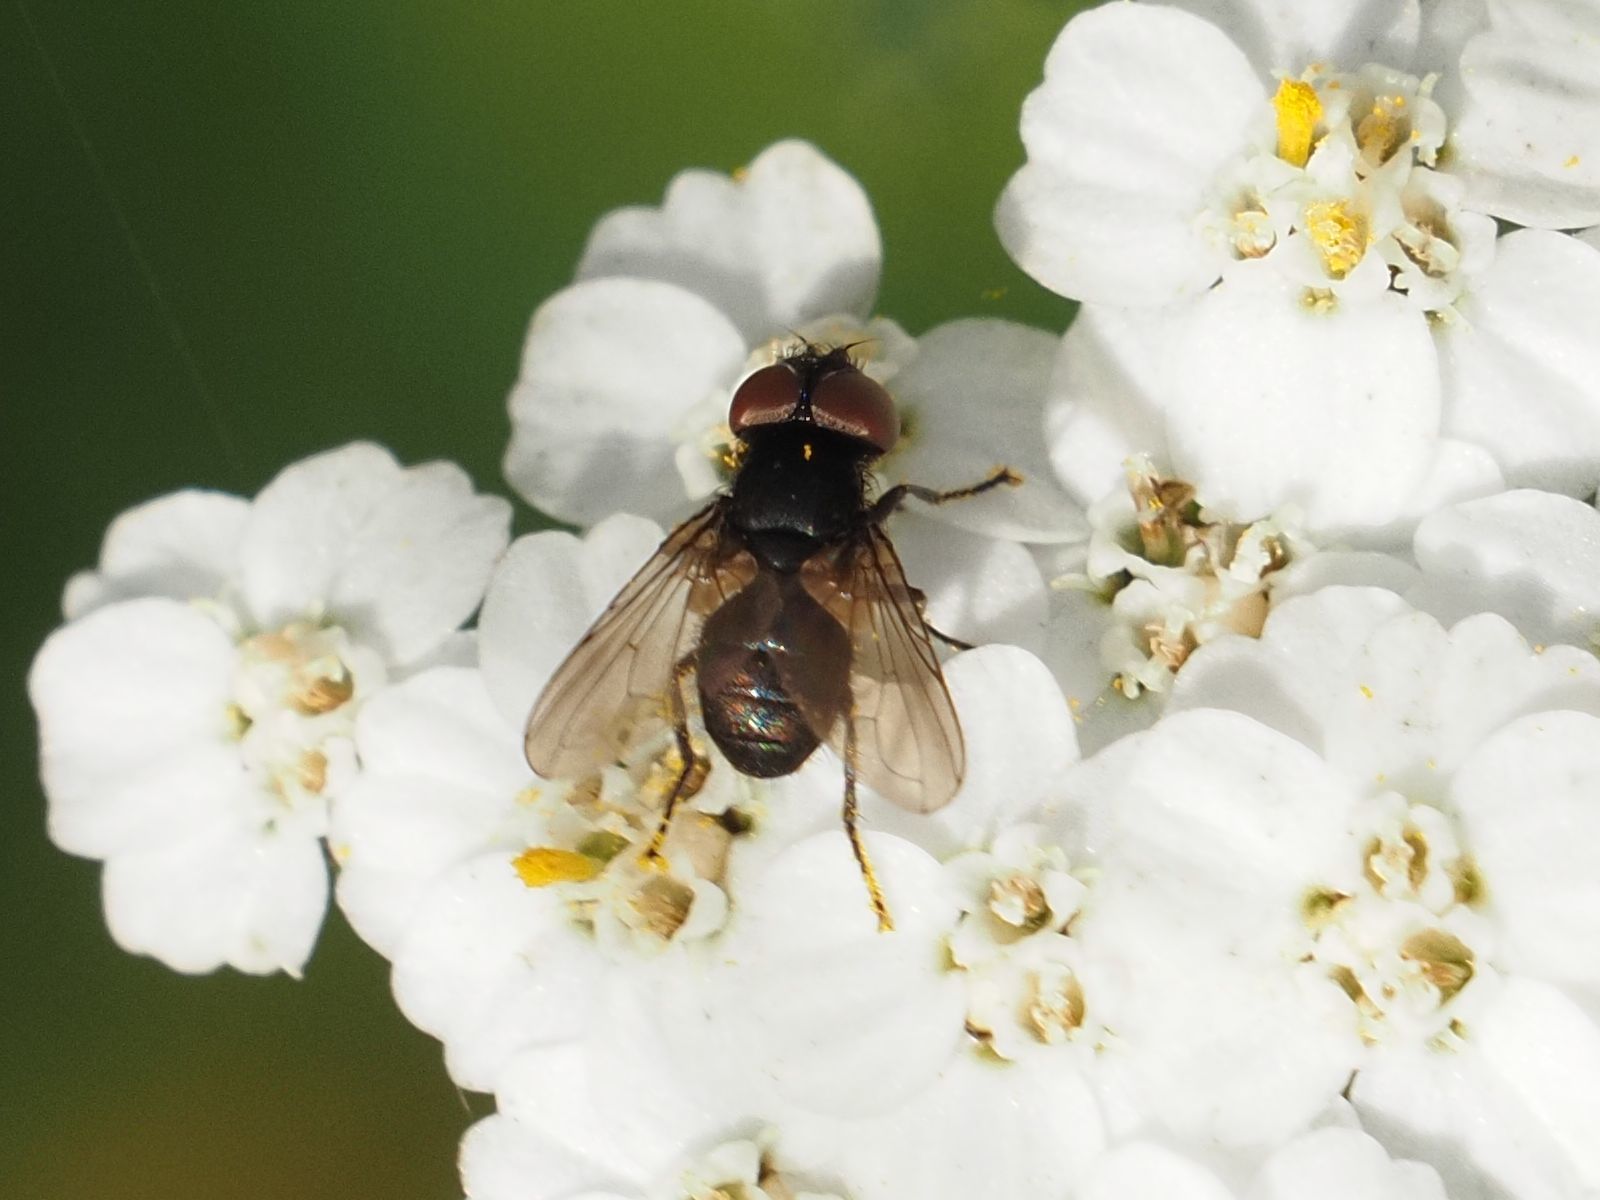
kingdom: Animalia
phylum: Arthropoda
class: Insecta
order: Diptera
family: Tachinidae
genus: Phasia
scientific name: Phasia barbifrons
